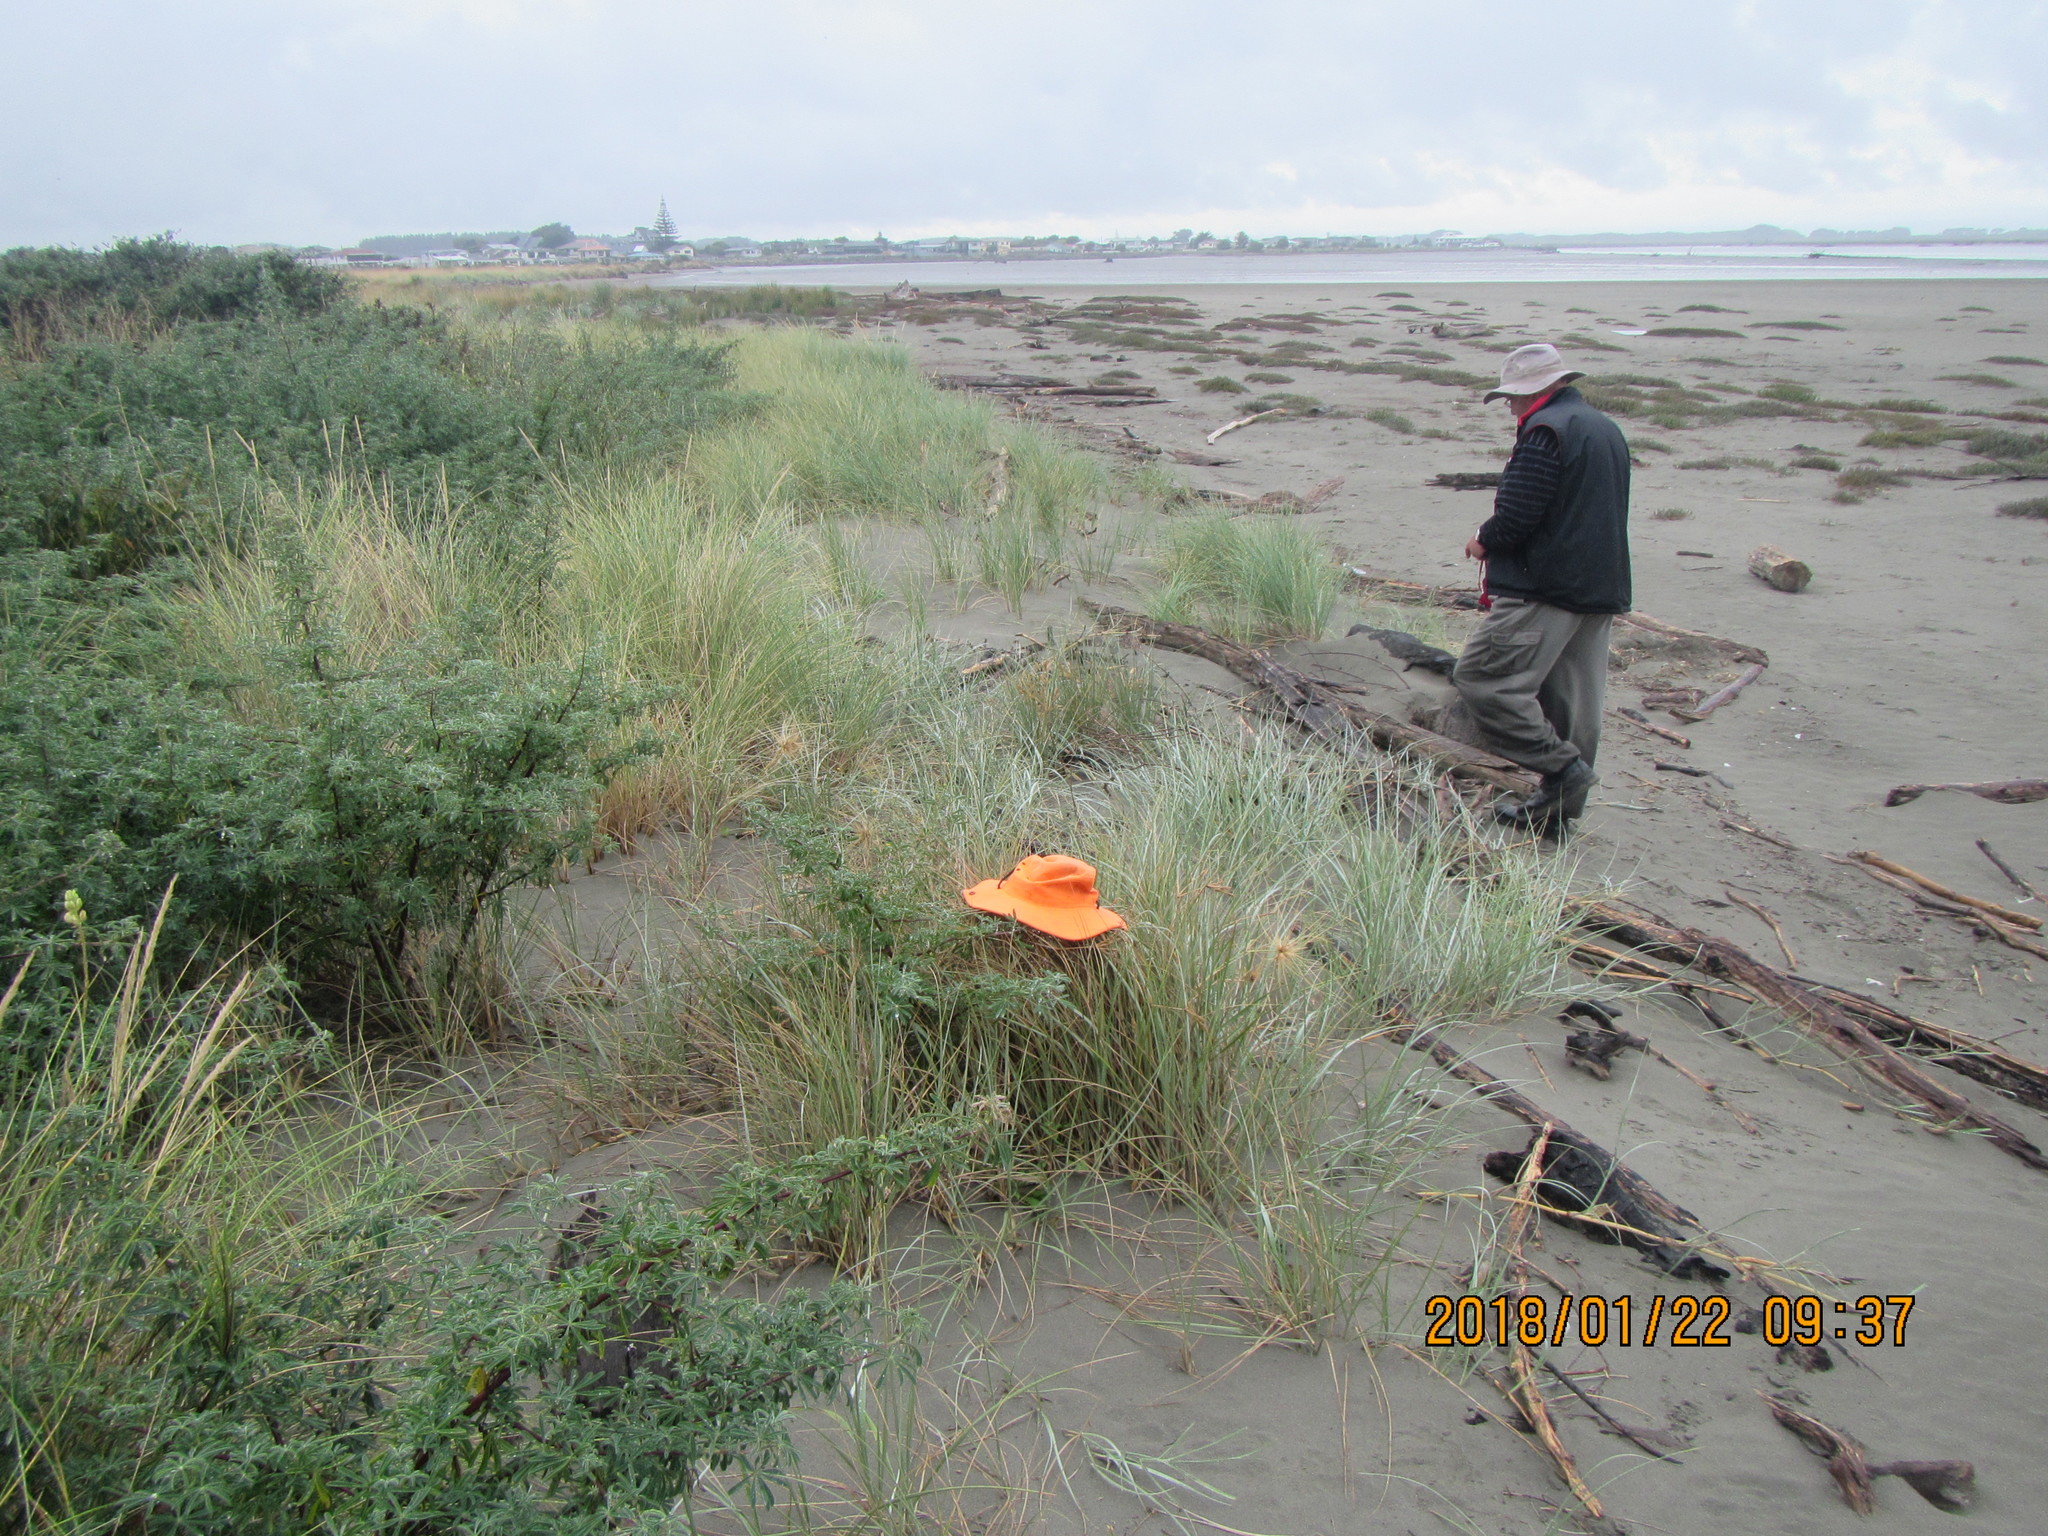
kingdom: Plantae
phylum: Tracheophyta
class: Liliopsida
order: Poales
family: Poaceae
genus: Spinifex
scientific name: Spinifex sericeus
